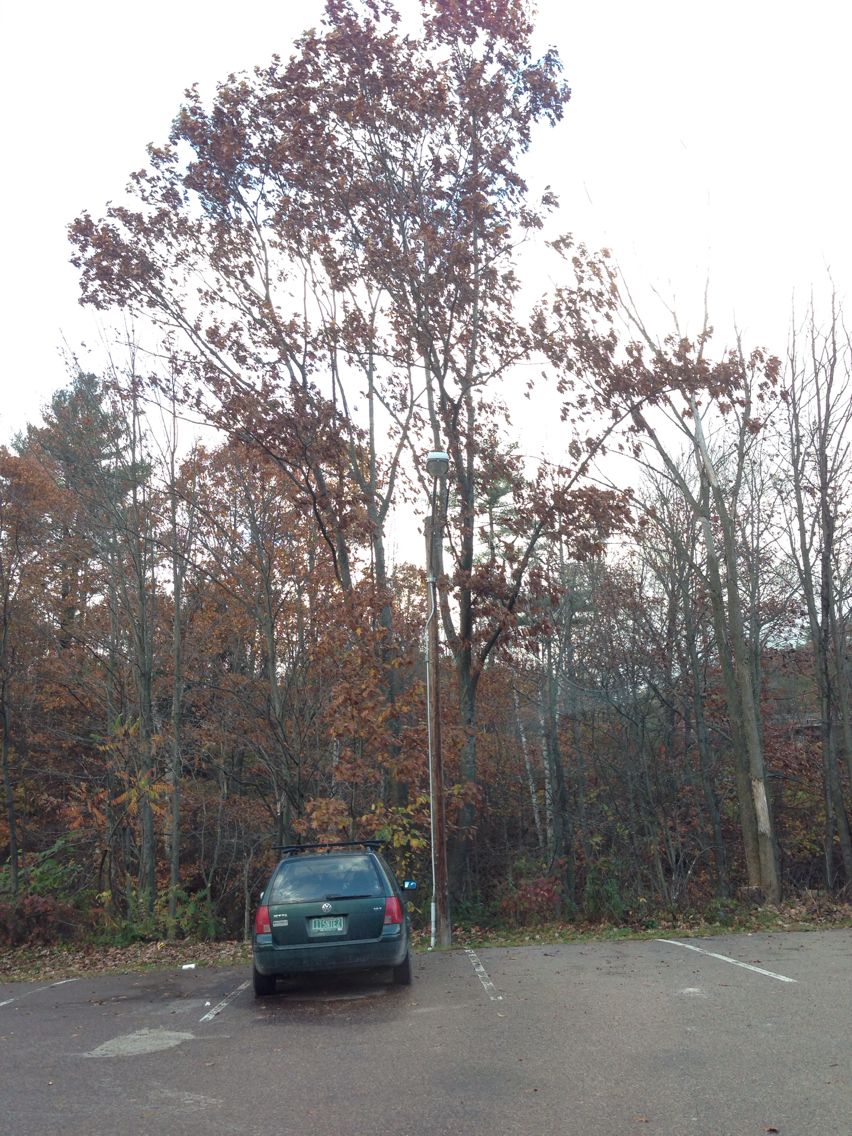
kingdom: Plantae
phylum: Tracheophyta
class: Magnoliopsida
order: Fagales
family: Fagaceae
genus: Quercus
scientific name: Quercus rubra
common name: Red oak
